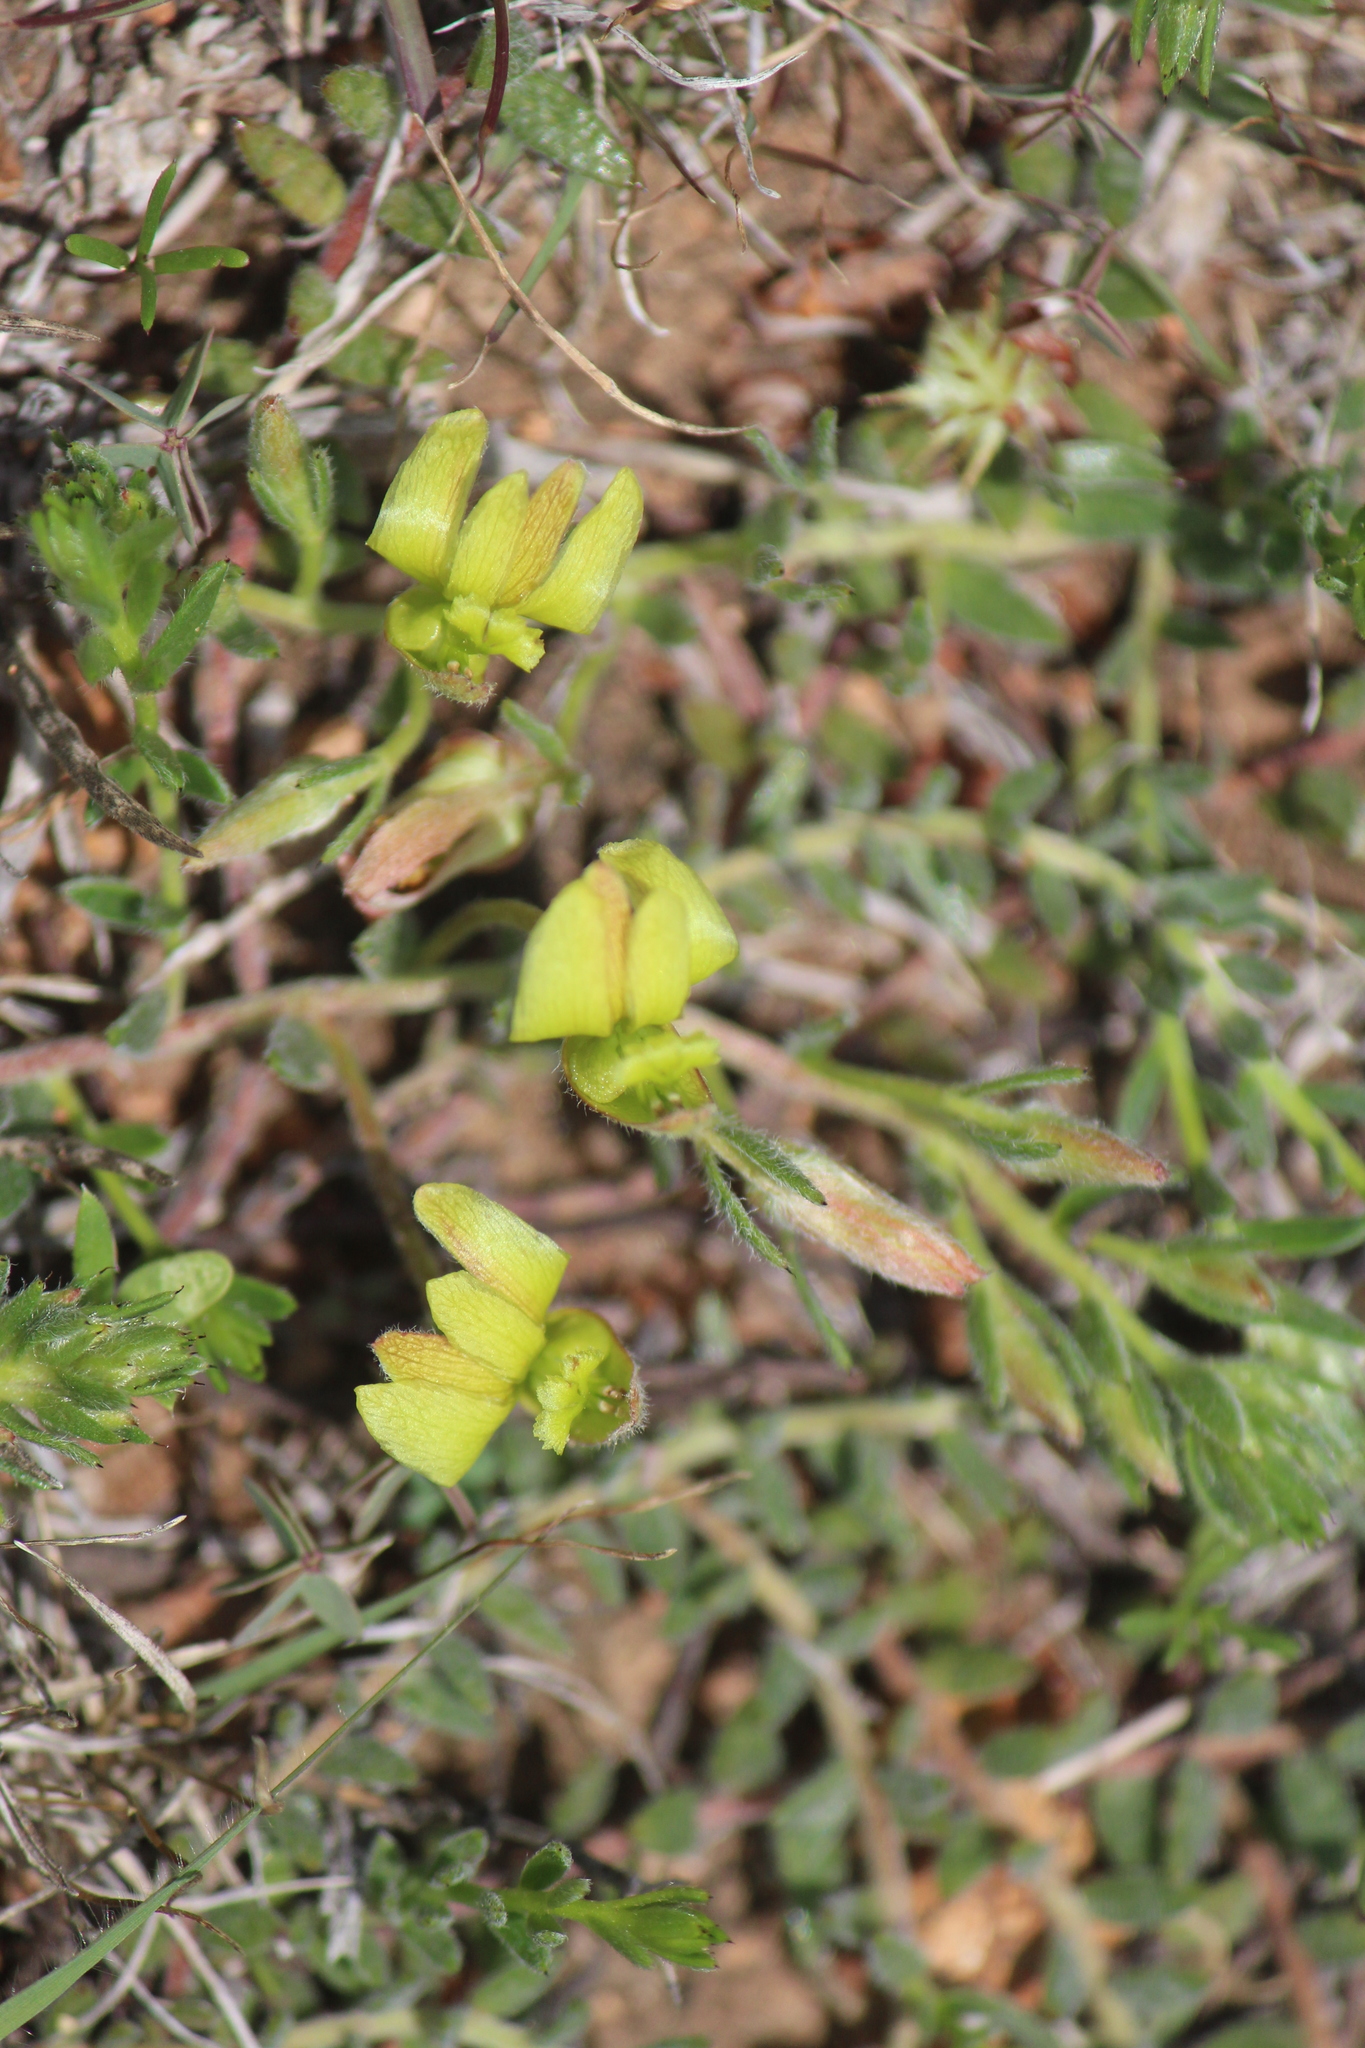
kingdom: Plantae
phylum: Tracheophyta
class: Magnoliopsida
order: Zygophyllales
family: Krameriaceae
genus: Krameria
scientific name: Krameria pauciflora
